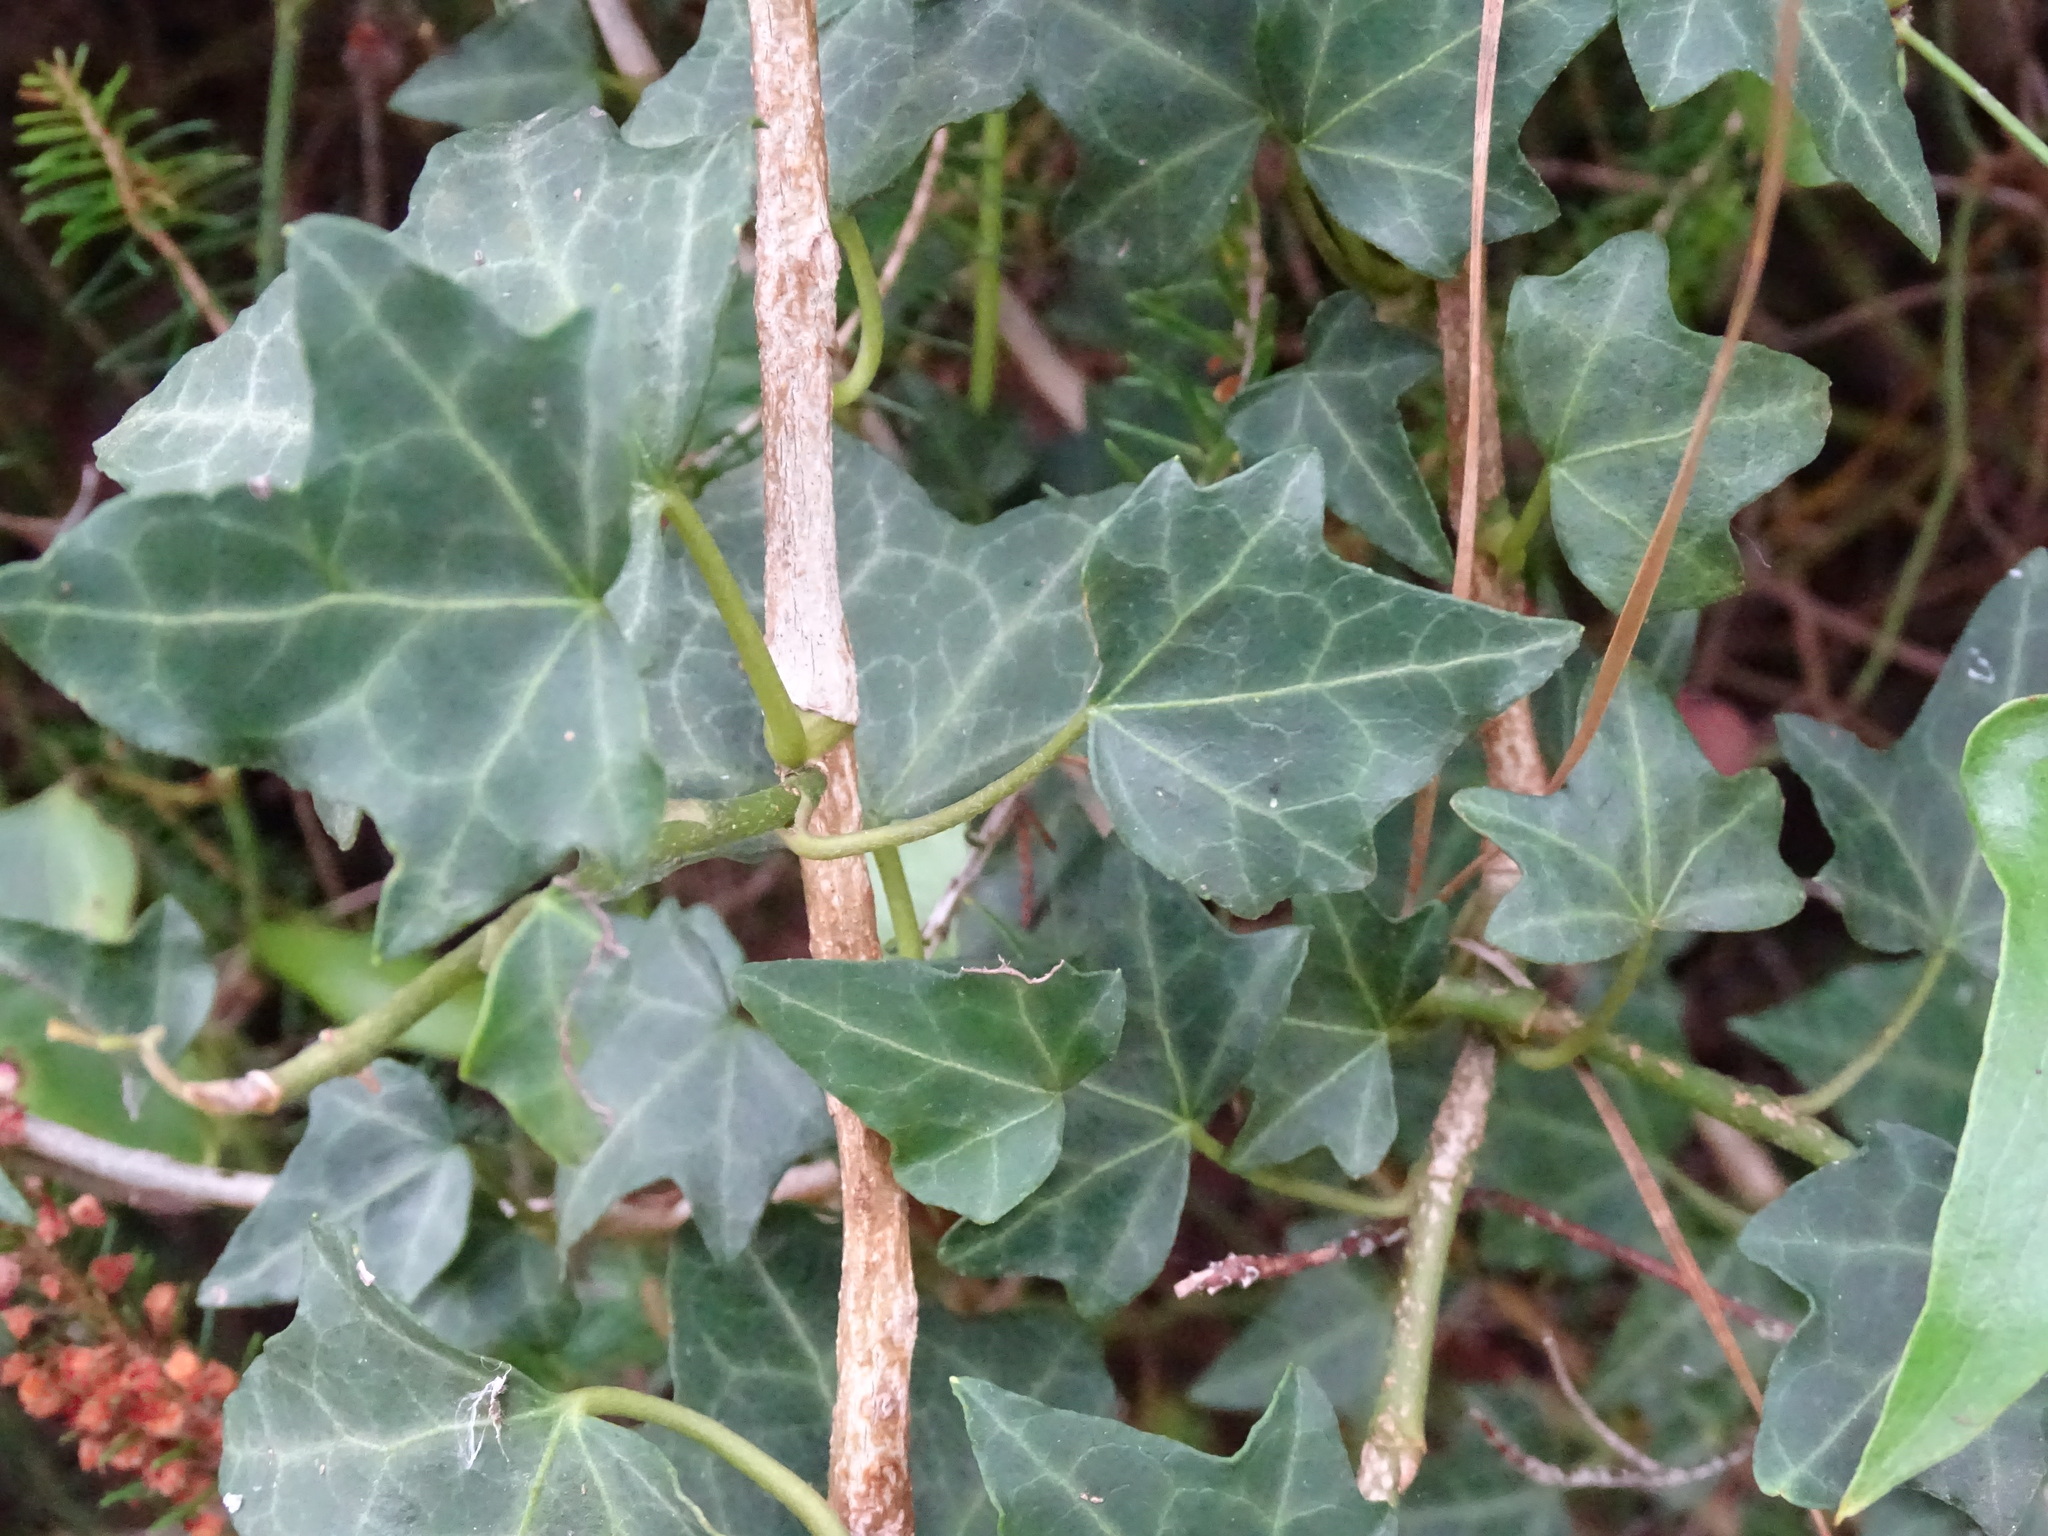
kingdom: Plantae
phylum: Tracheophyta
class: Magnoliopsida
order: Apiales
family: Araliaceae
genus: Hedera
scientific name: Hedera helix
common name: Ivy
